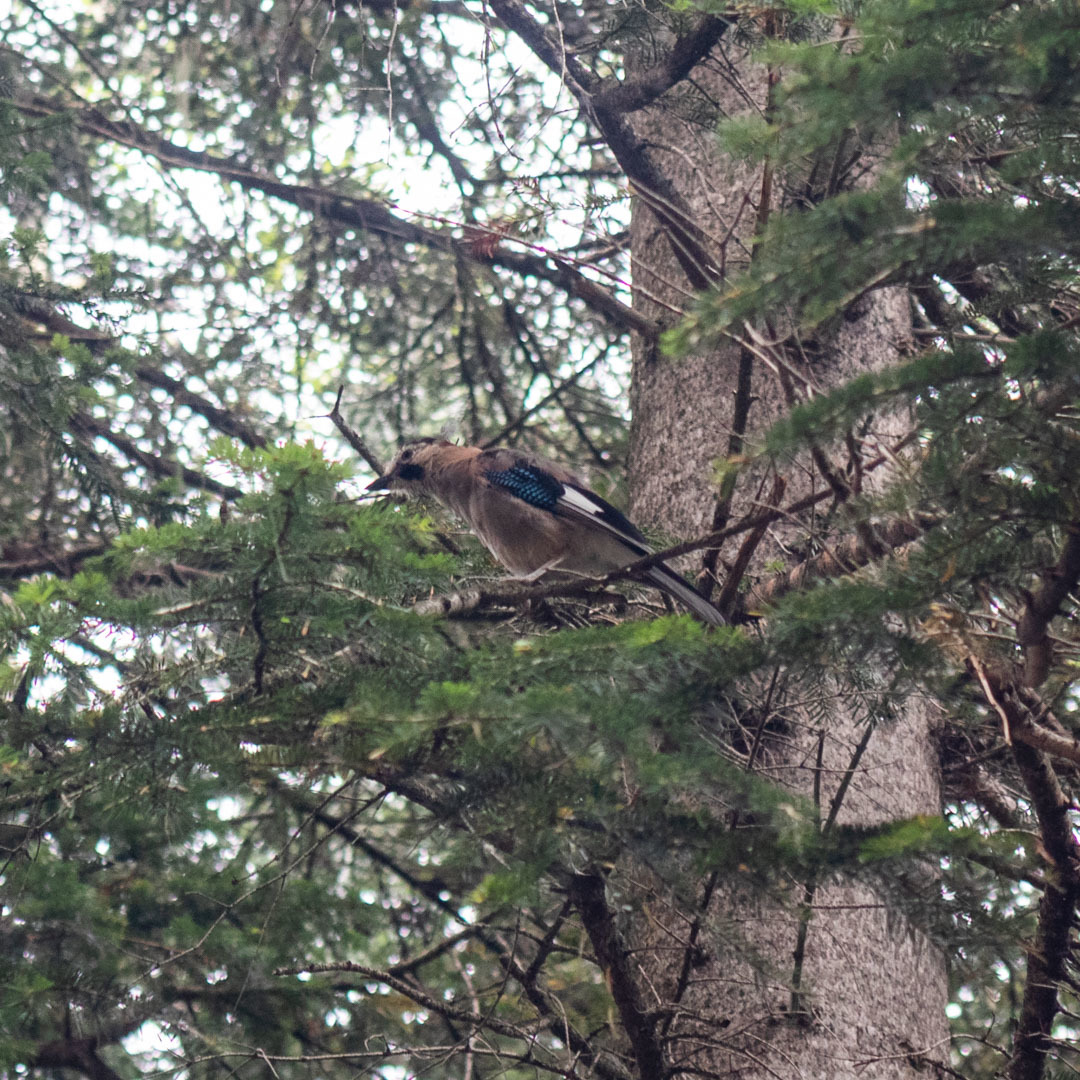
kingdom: Animalia
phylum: Chordata
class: Aves
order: Passeriformes
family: Corvidae
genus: Garrulus
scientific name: Garrulus glandarius
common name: Eurasian jay
